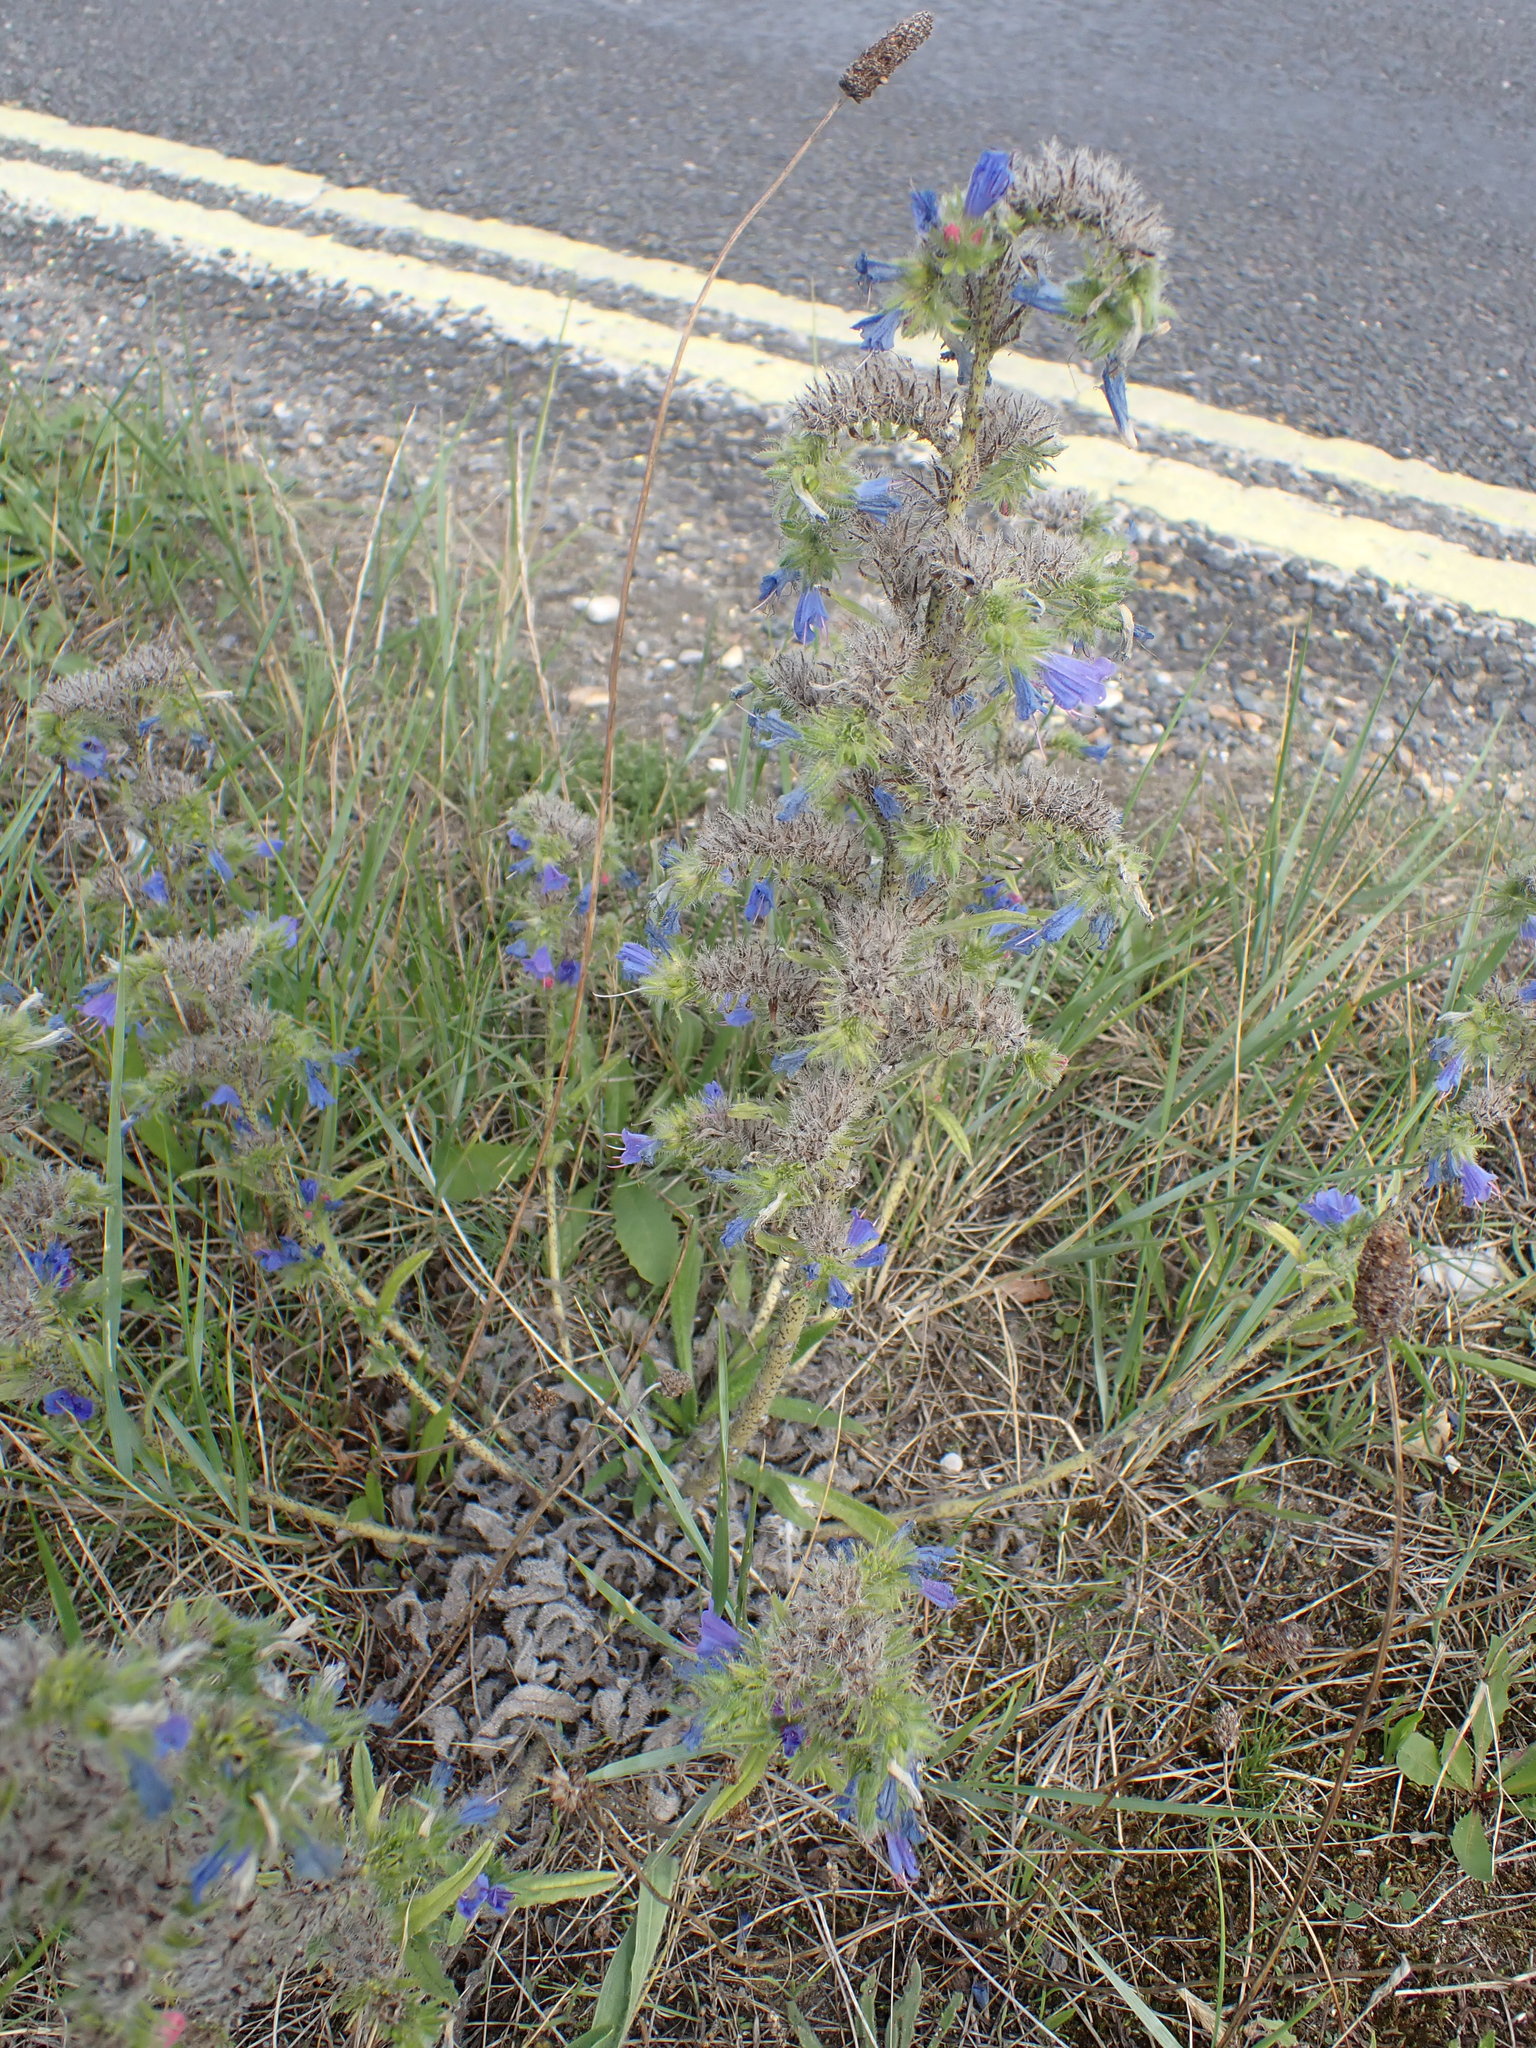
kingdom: Plantae
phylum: Tracheophyta
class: Magnoliopsida
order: Boraginales
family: Boraginaceae
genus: Echium
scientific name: Echium vulgare
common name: Common viper's bugloss
